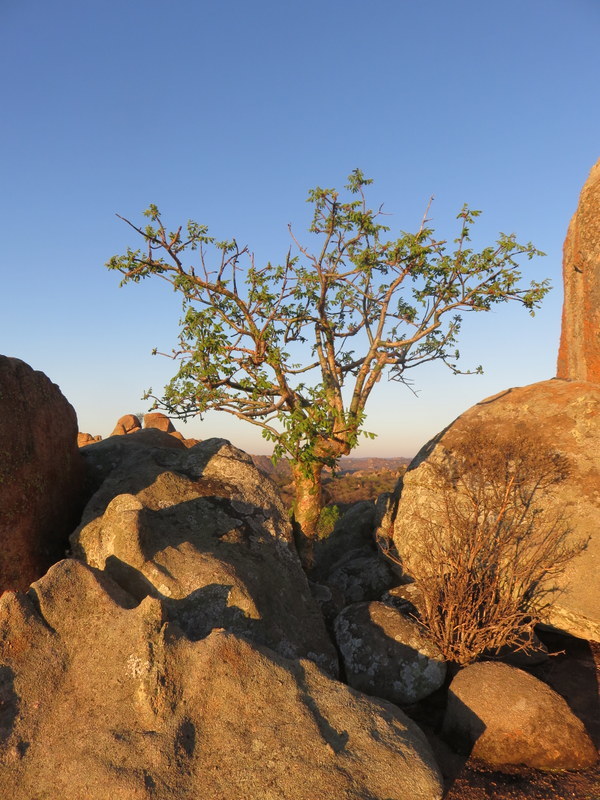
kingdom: Plantae
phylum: Tracheophyta
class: Magnoliopsida
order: Sapindales
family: Burseraceae
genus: Commiphora
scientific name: Commiphora marlothii
